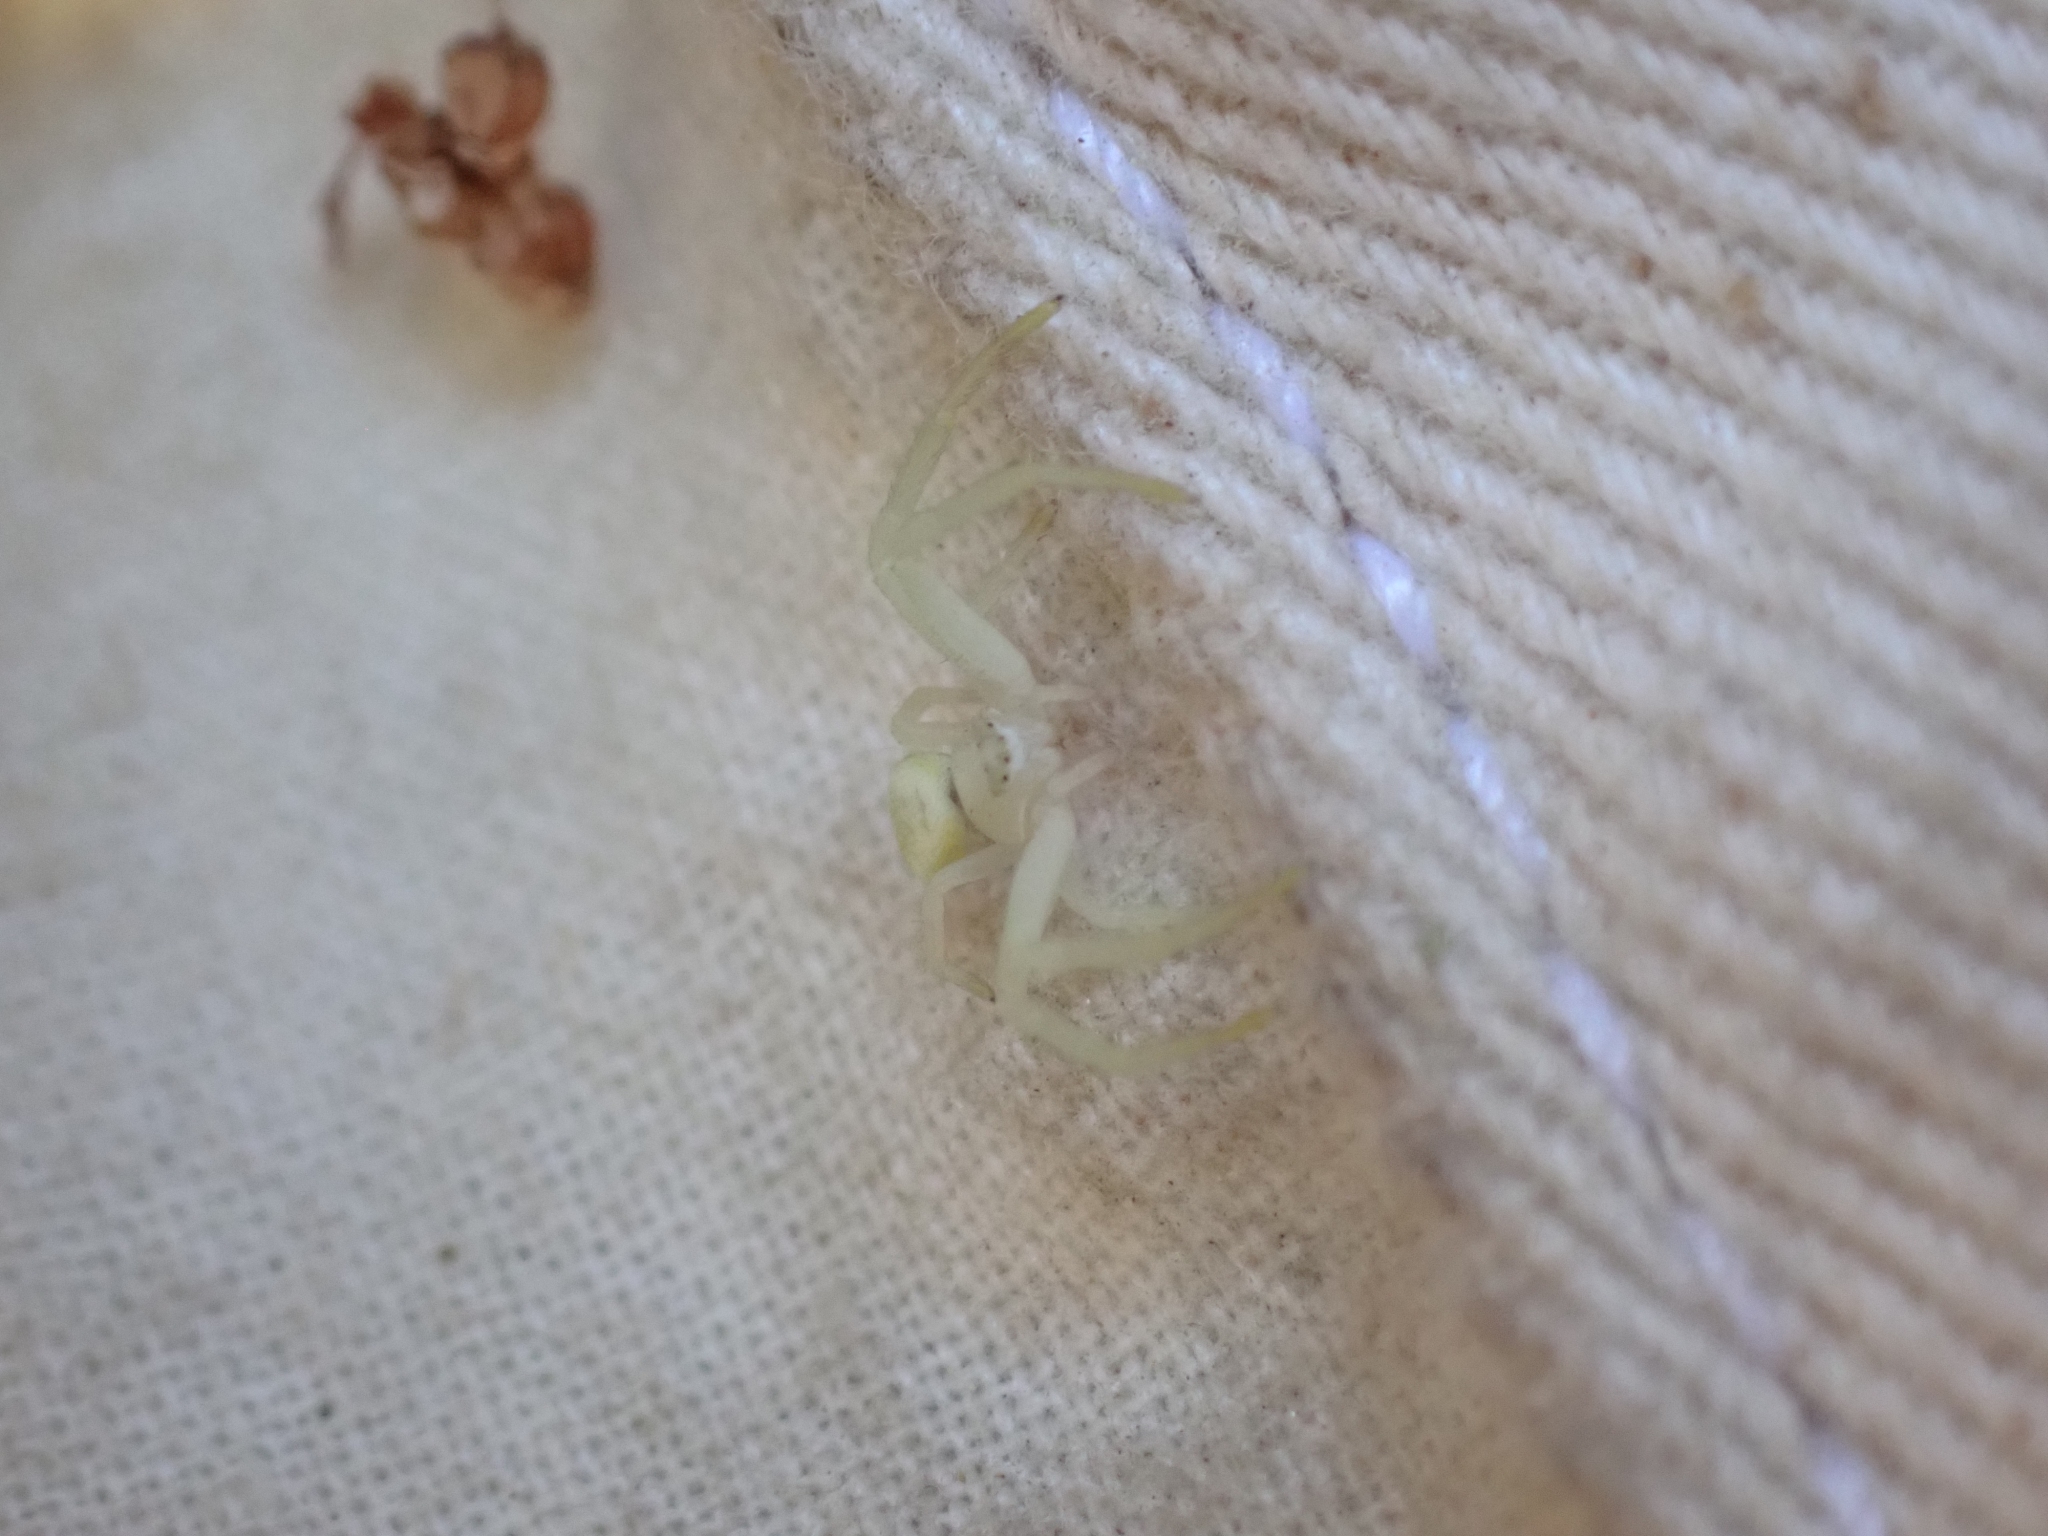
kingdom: Animalia
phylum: Arthropoda
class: Arachnida
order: Araneae
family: Thomisidae
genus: Misumena
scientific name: Misumena vatia
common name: Goldenrod crab spider
